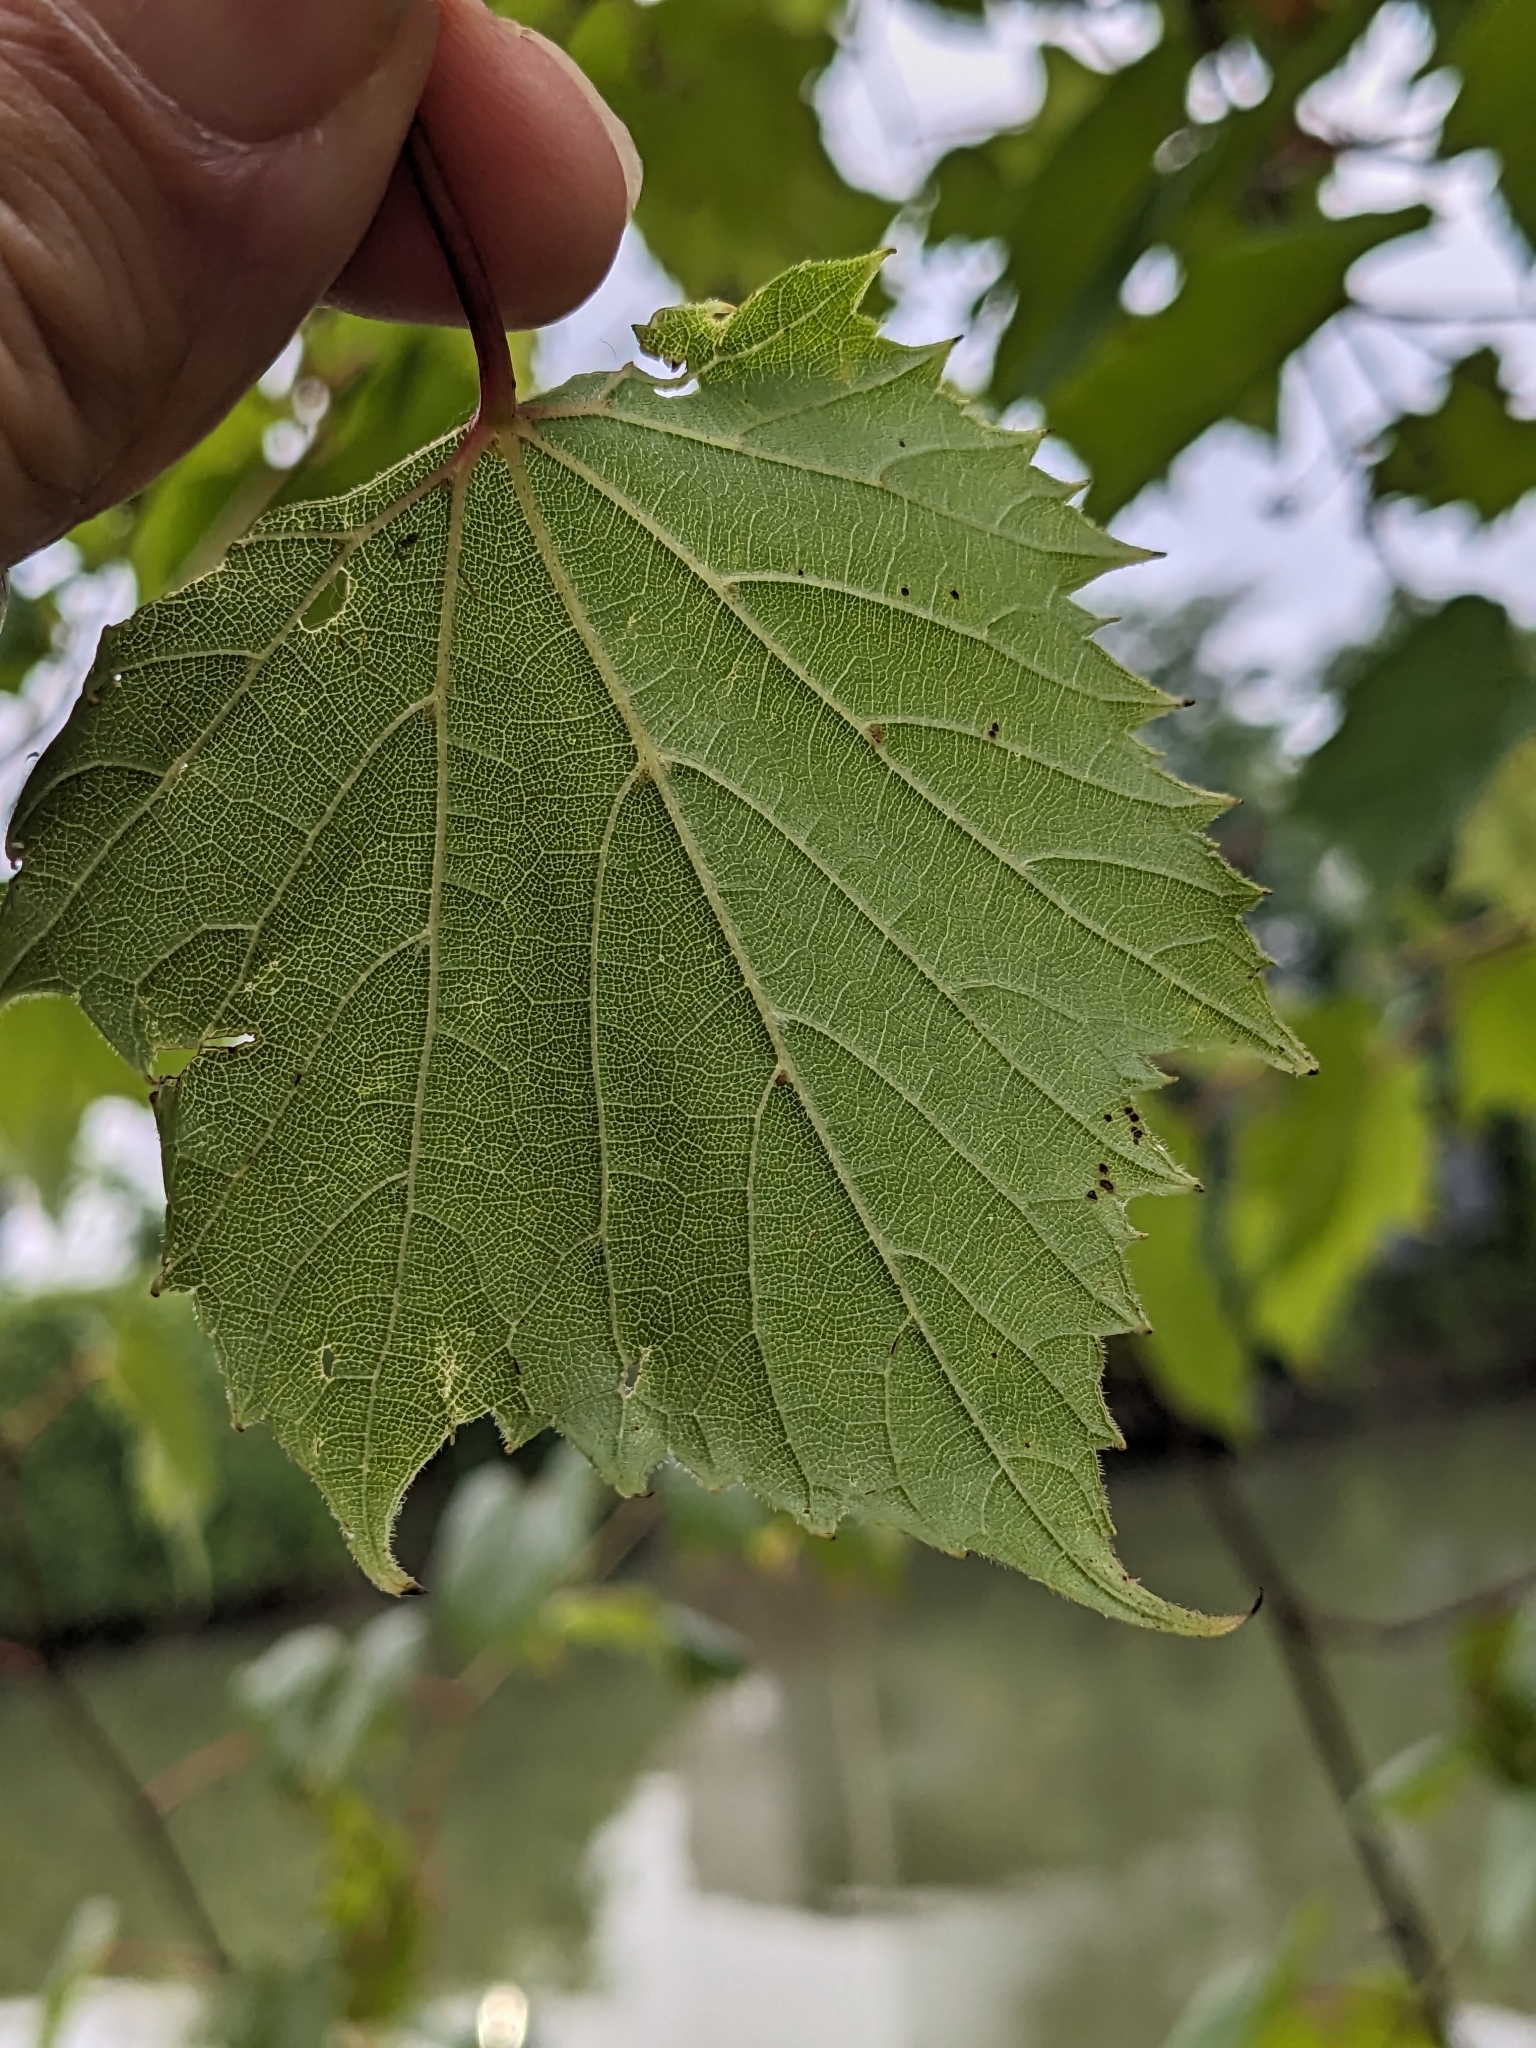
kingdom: Plantae
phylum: Tracheophyta
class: Magnoliopsida
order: Vitales
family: Vitaceae
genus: Vitis
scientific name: Vitis riparia
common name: Frost grape
